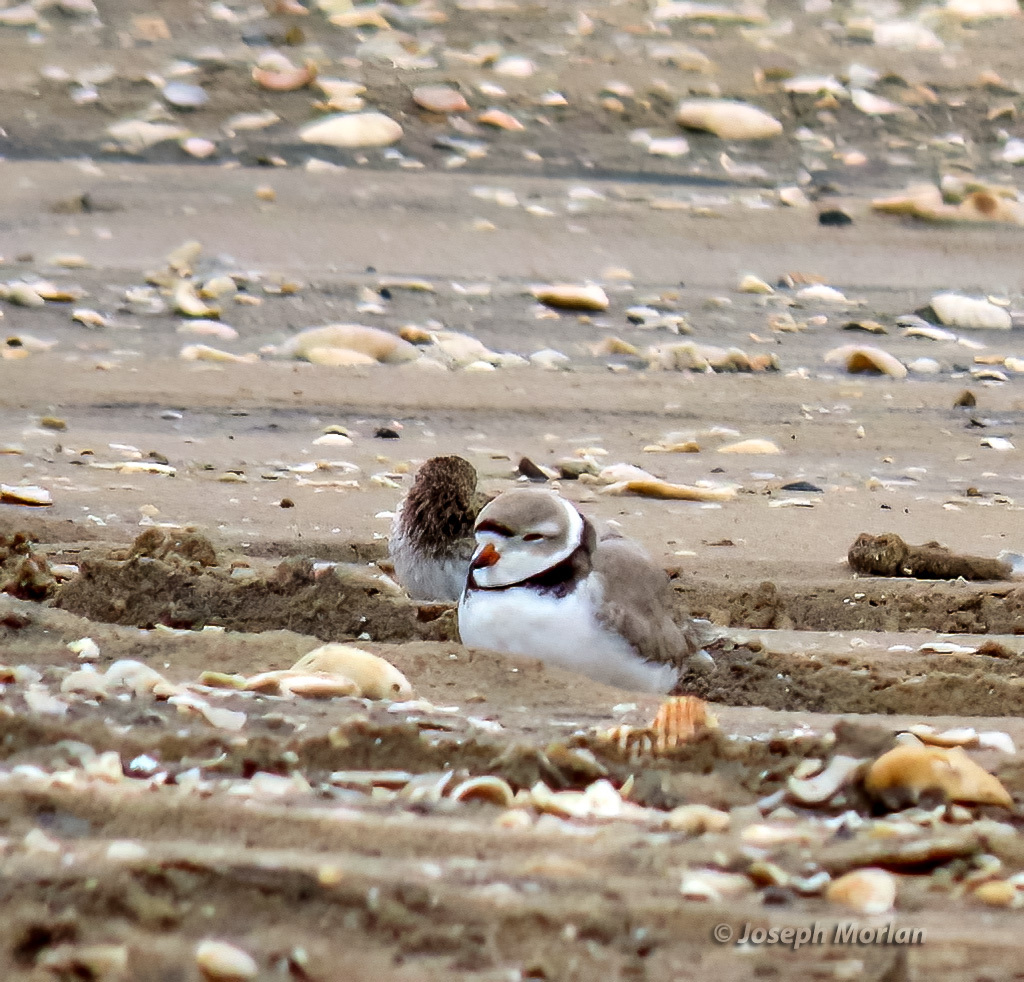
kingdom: Animalia
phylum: Chordata
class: Aves
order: Charadriiformes
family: Charadriidae
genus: Charadrius
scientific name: Charadrius melodus
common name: Piping plover
